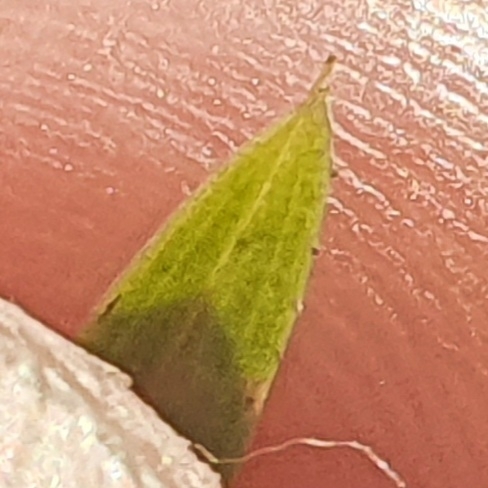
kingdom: Plantae
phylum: Tracheophyta
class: Liliopsida
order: Asparagales
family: Orchidaceae
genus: Cymbidium
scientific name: Cymbidium suave
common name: Snake orchid
